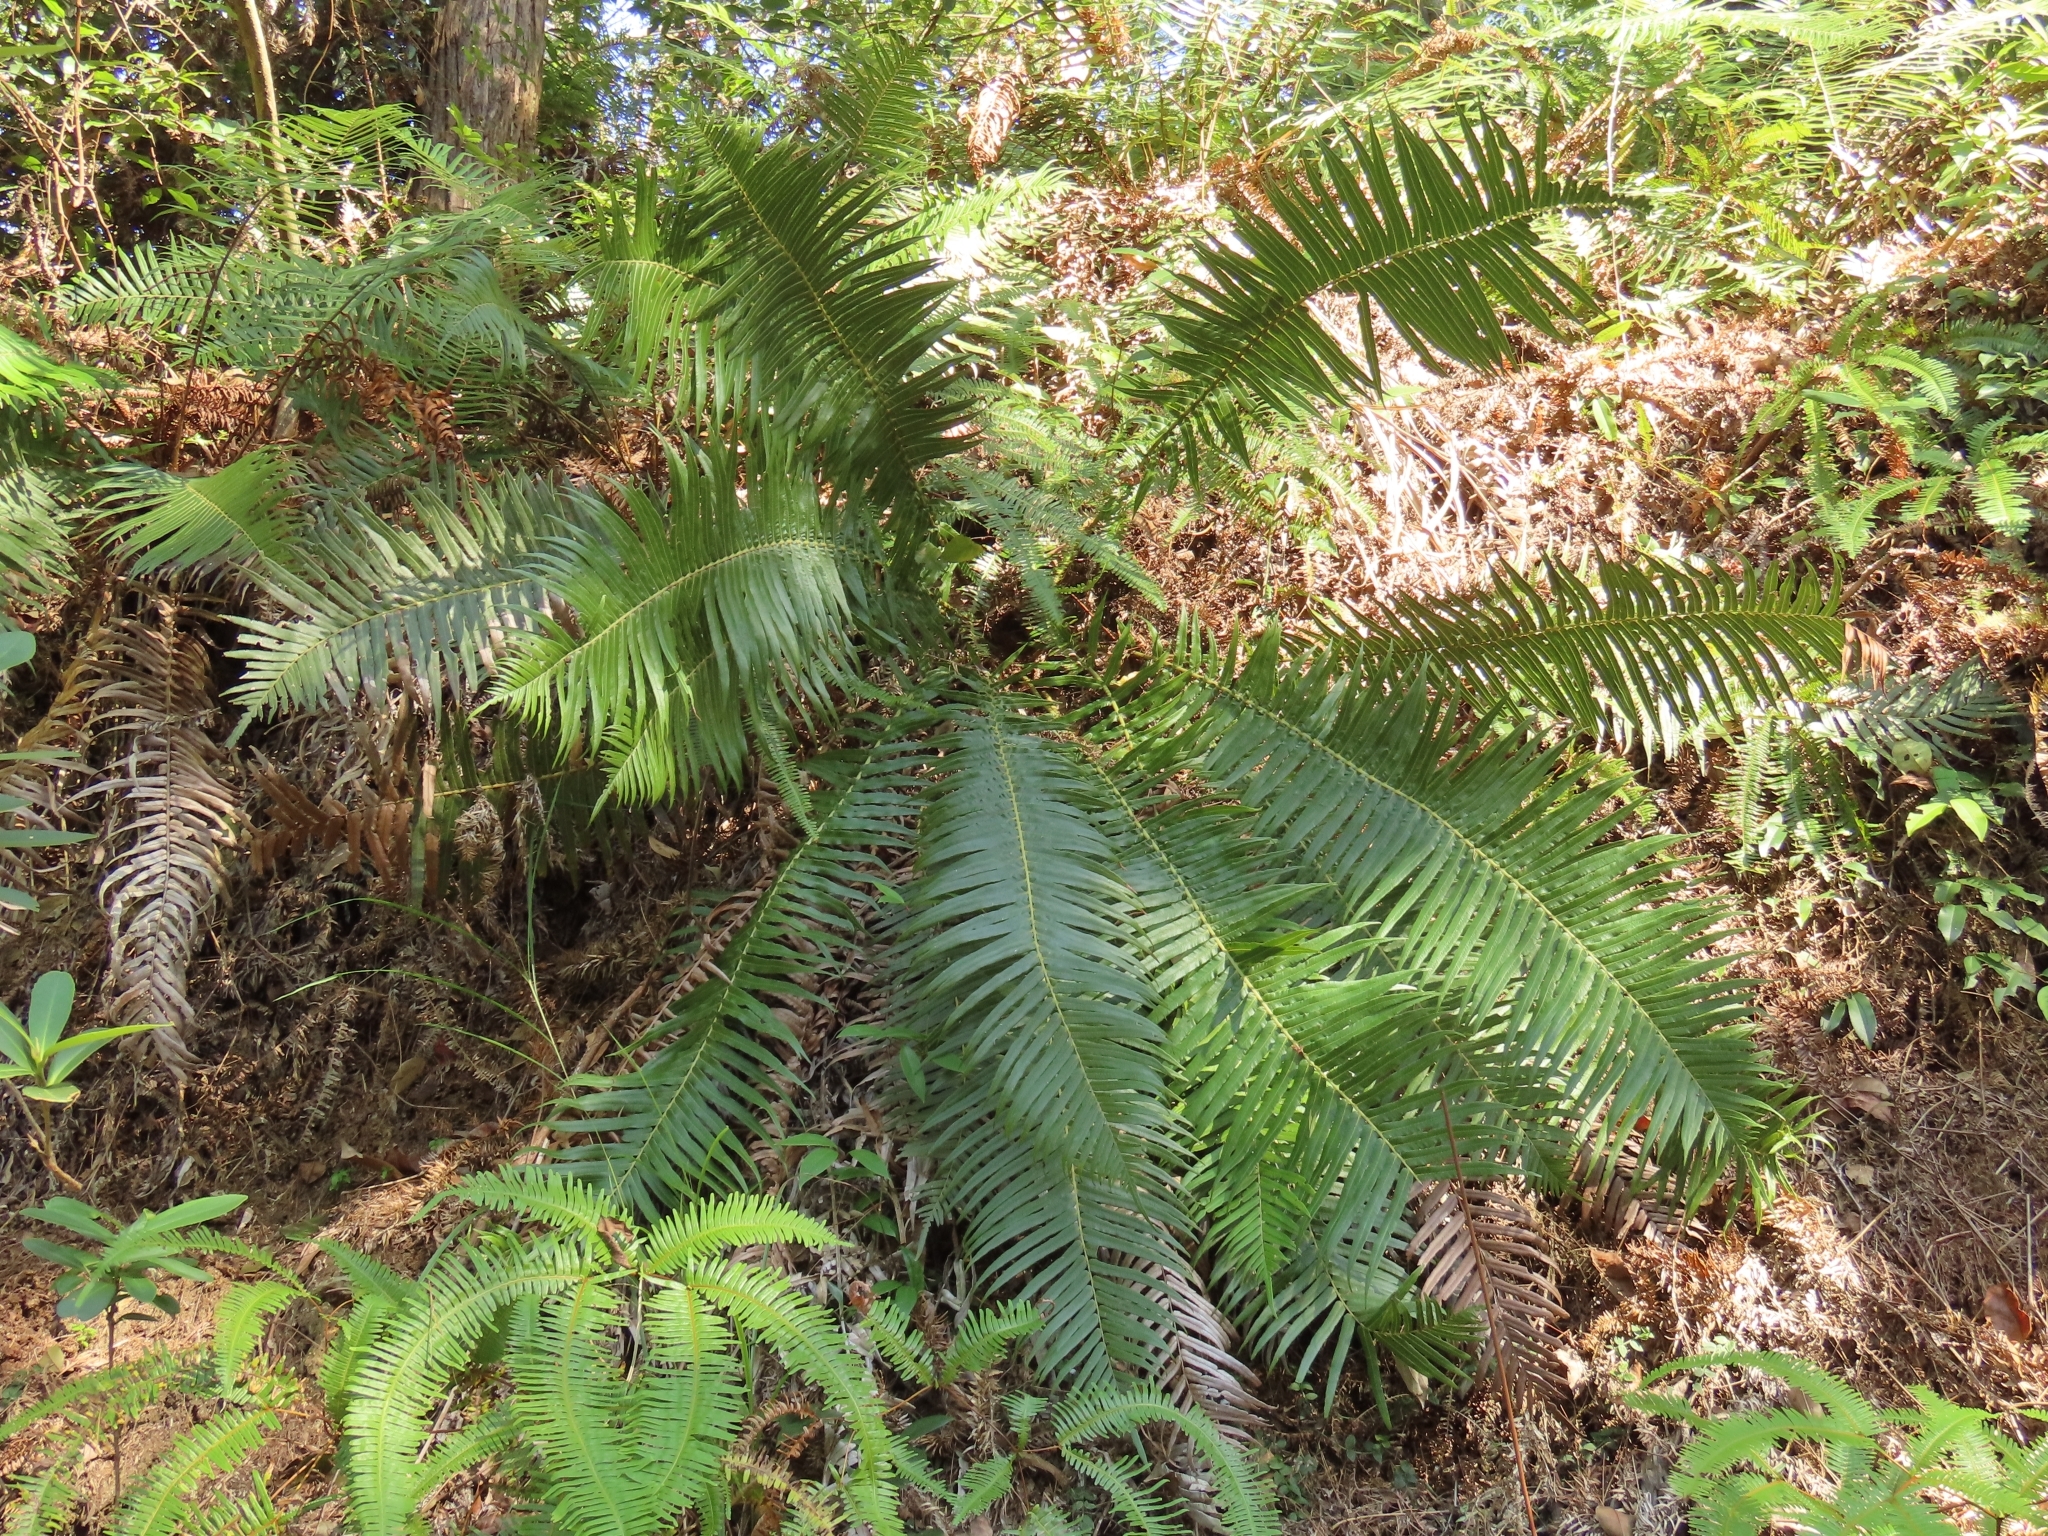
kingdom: Plantae
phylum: Tracheophyta
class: Polypodiopsida
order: Polypodiales
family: Blechnaceae
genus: Brainea
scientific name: Brainea insignis
